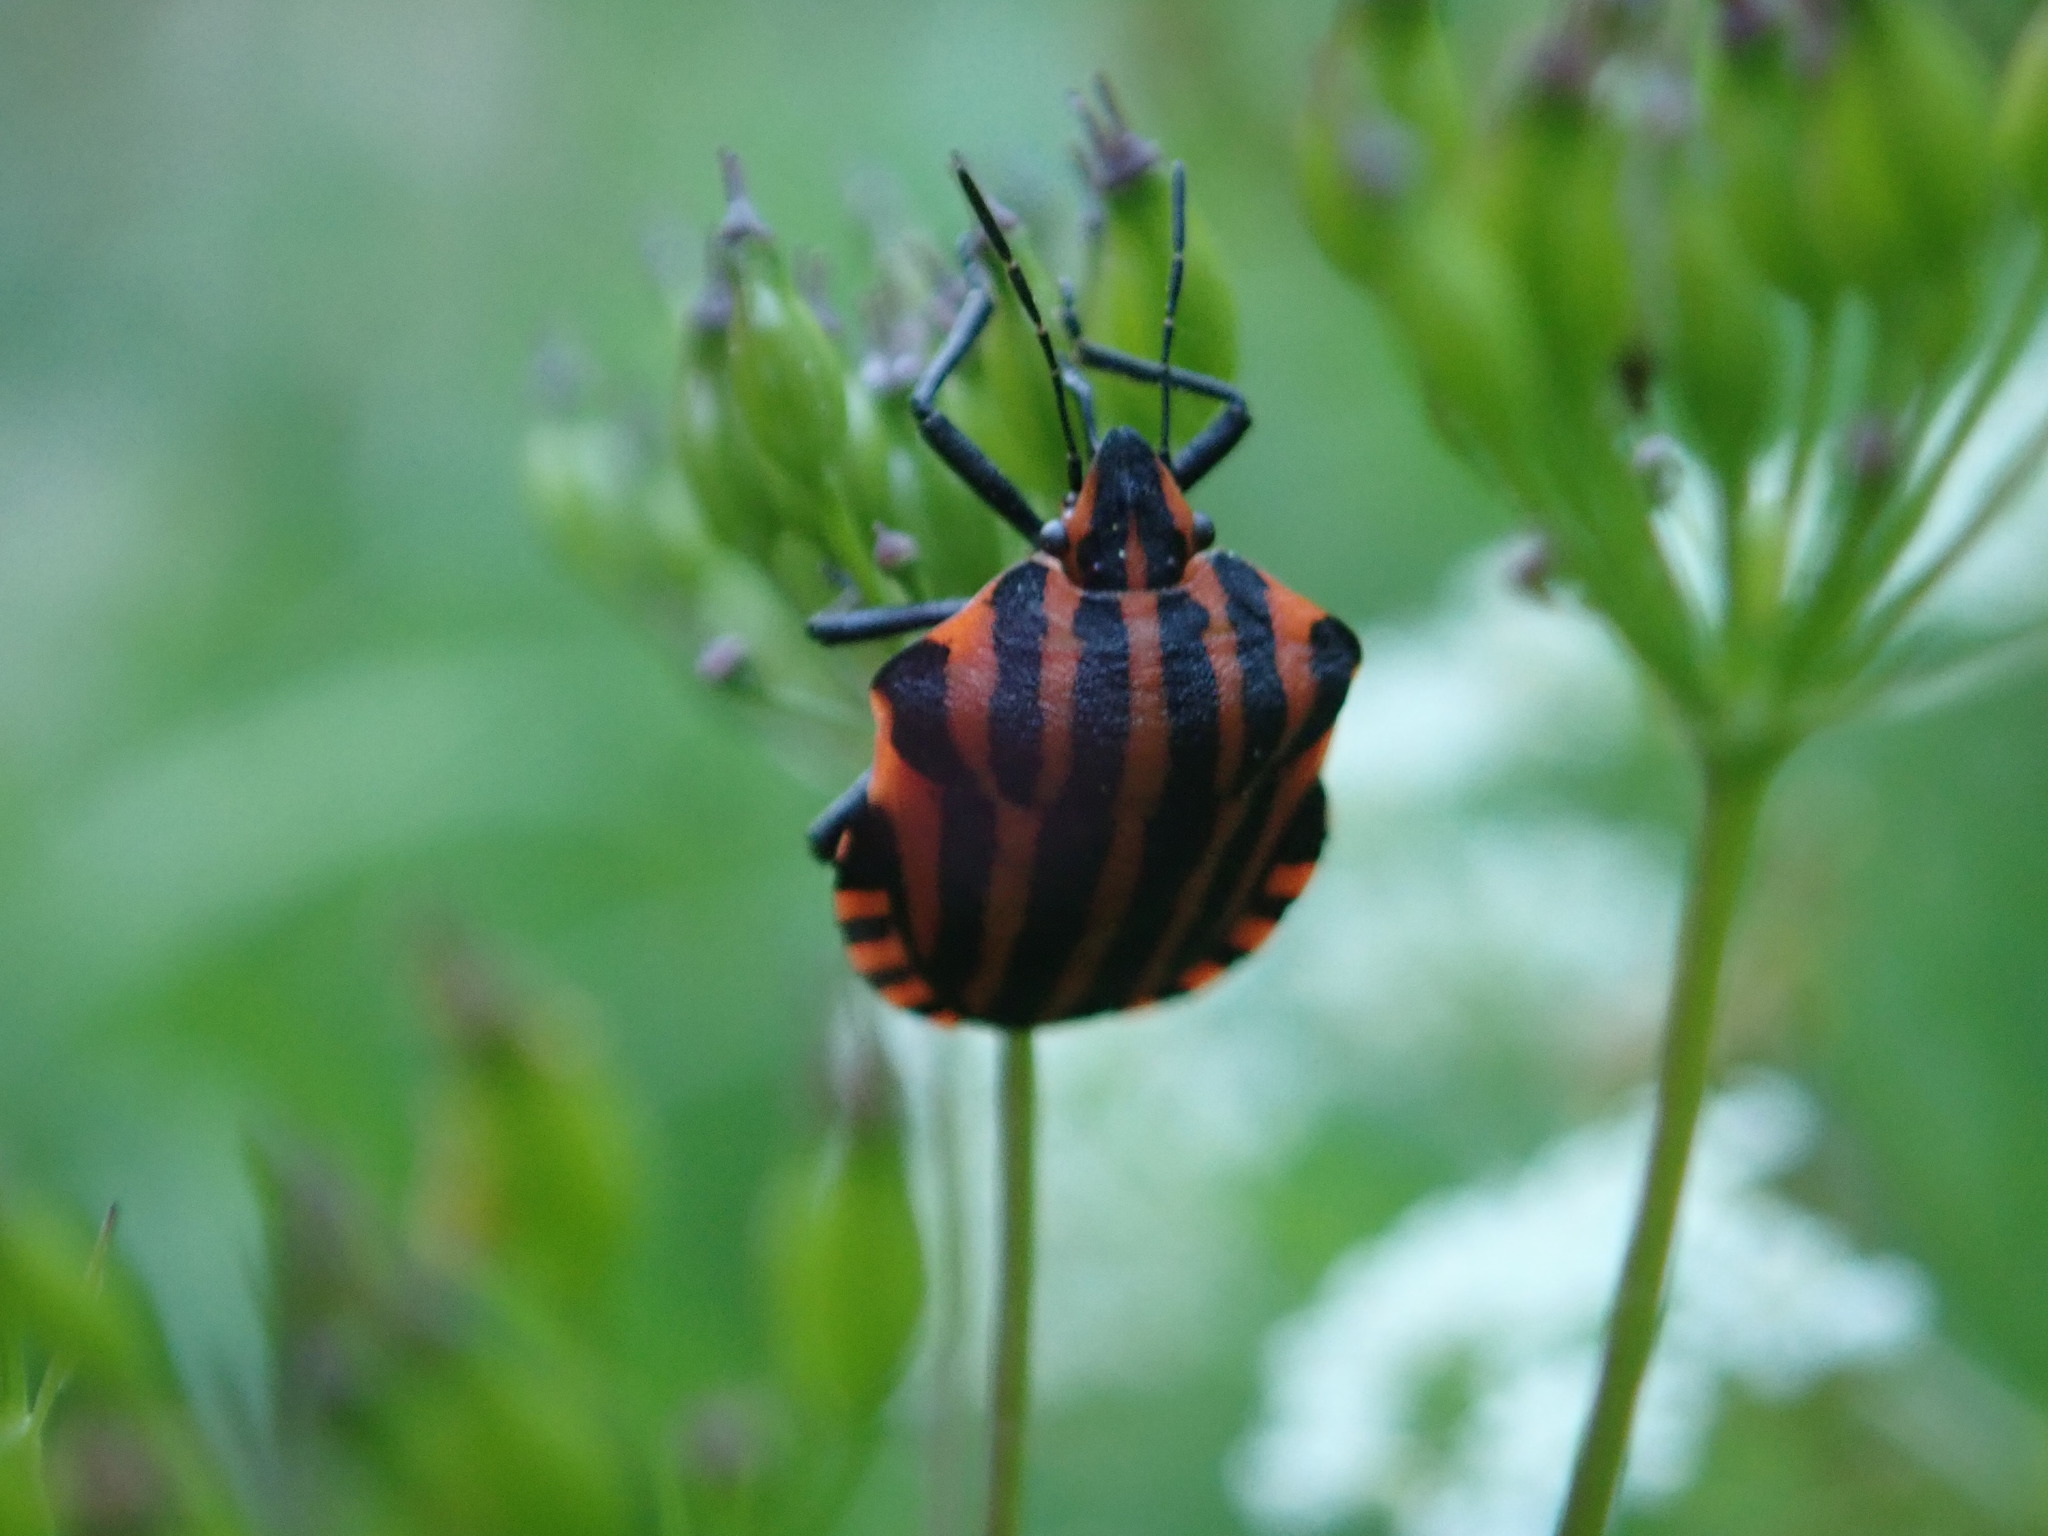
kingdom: Animalia
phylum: Arthropoda
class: Insecta
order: Hemiptera
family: Pentatomidae
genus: Graphosoma
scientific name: Graphosoma italicum
